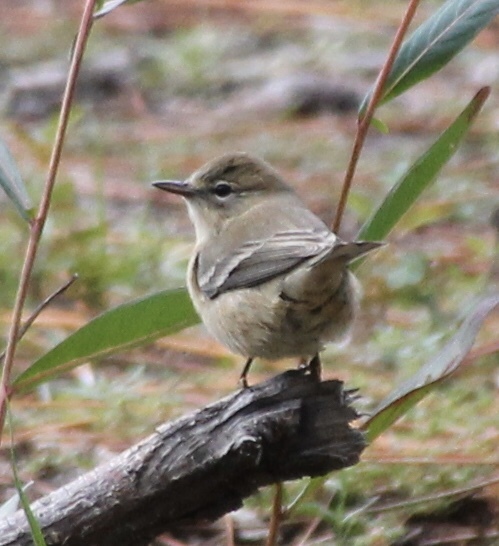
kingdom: Animalia
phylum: Chordata
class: Aves
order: Passeriformes
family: Parulidae
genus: Setophaga
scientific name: Setophaga pinus
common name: Pine warbler
